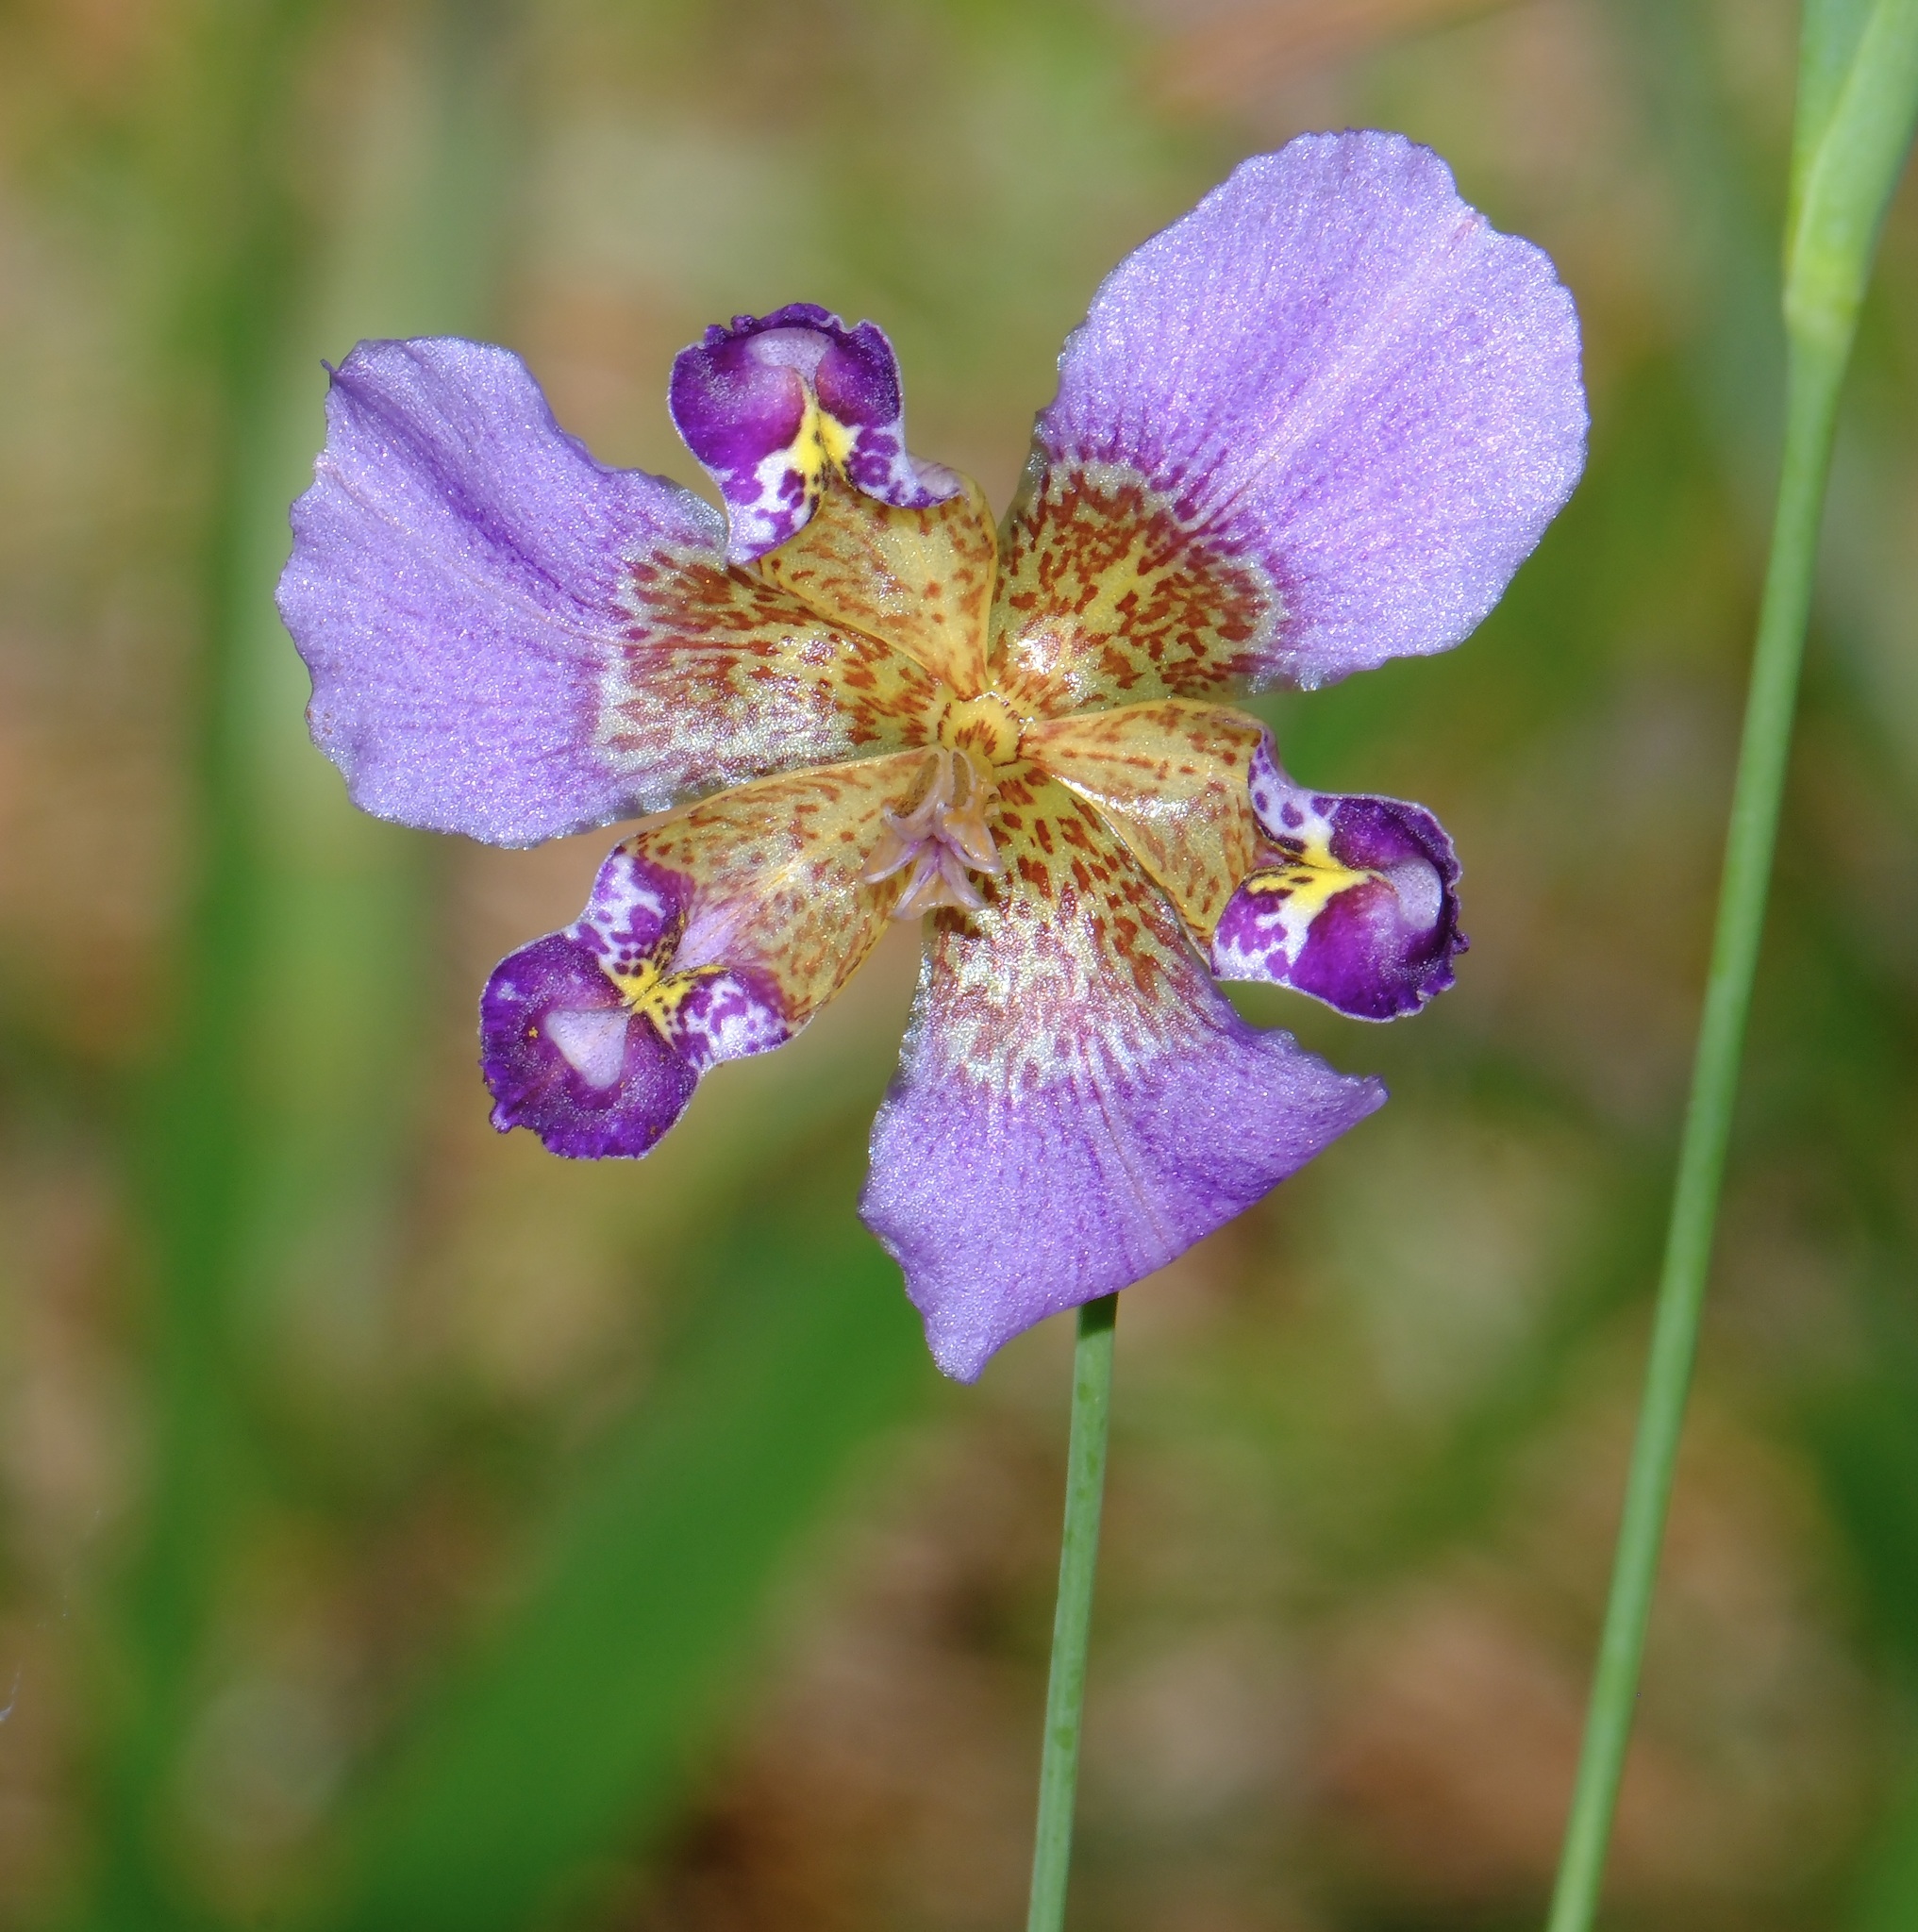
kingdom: Plantae
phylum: Tracheophyta
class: Liliopsida
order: Asparagales
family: Iridaceae
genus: Alophia
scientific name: Alophia drummondii
